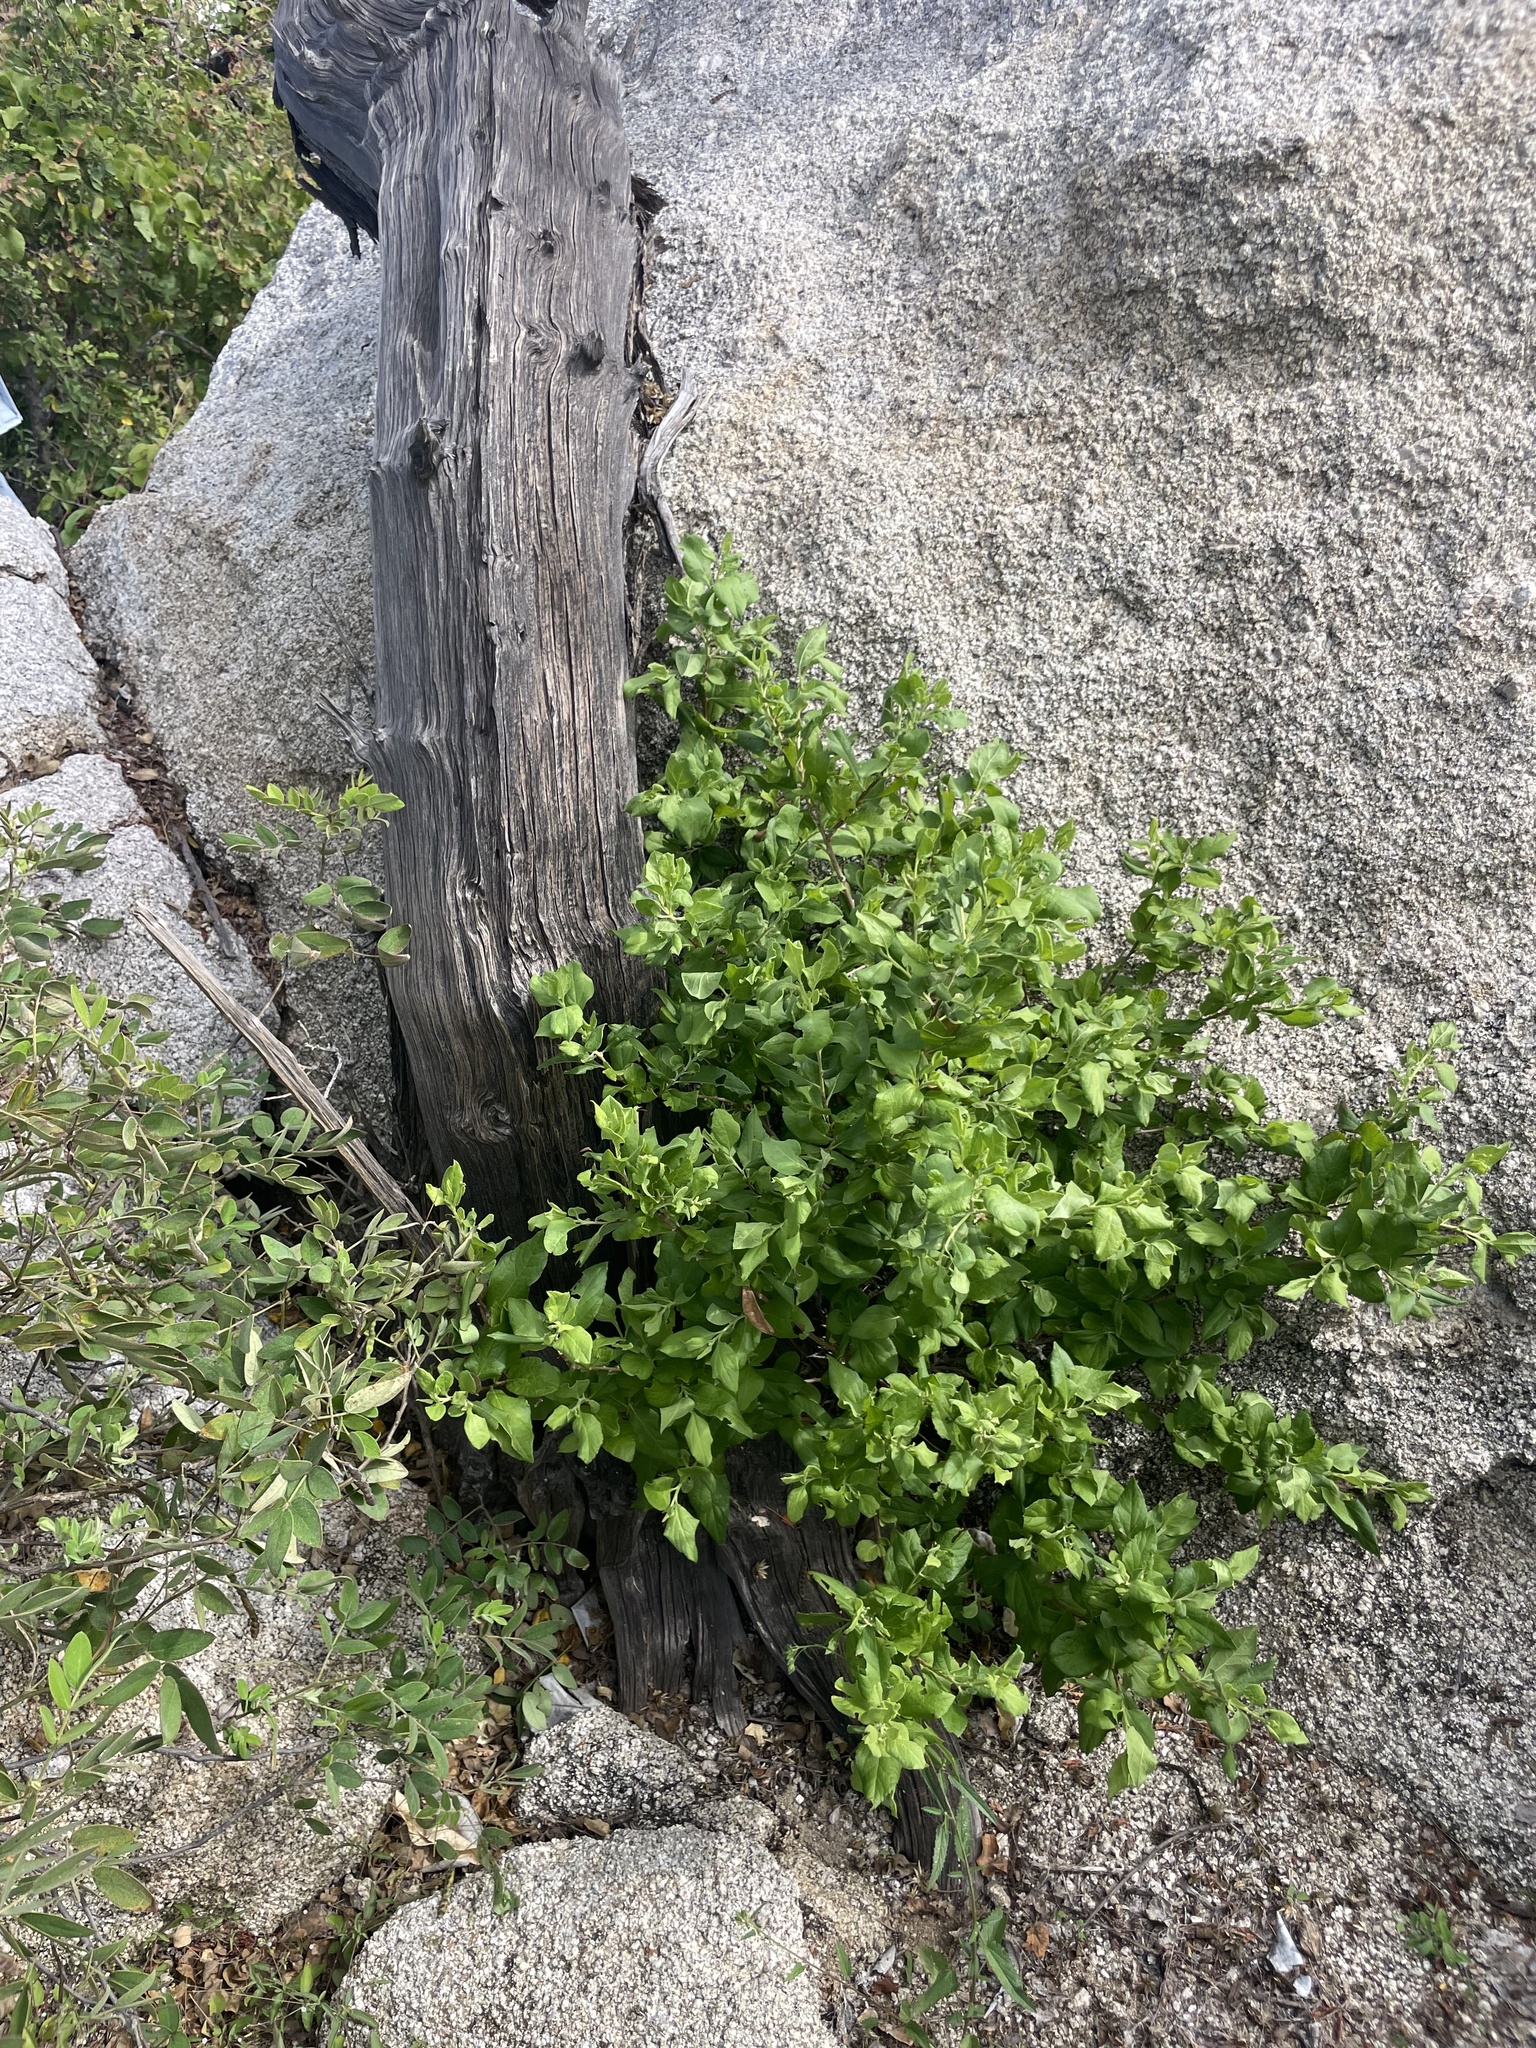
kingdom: Plantae
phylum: Tracheophyta
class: Magnoliopsida
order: Asterales
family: Asteraceae
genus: Nahuatlea
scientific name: Nahuatlea arborescens
